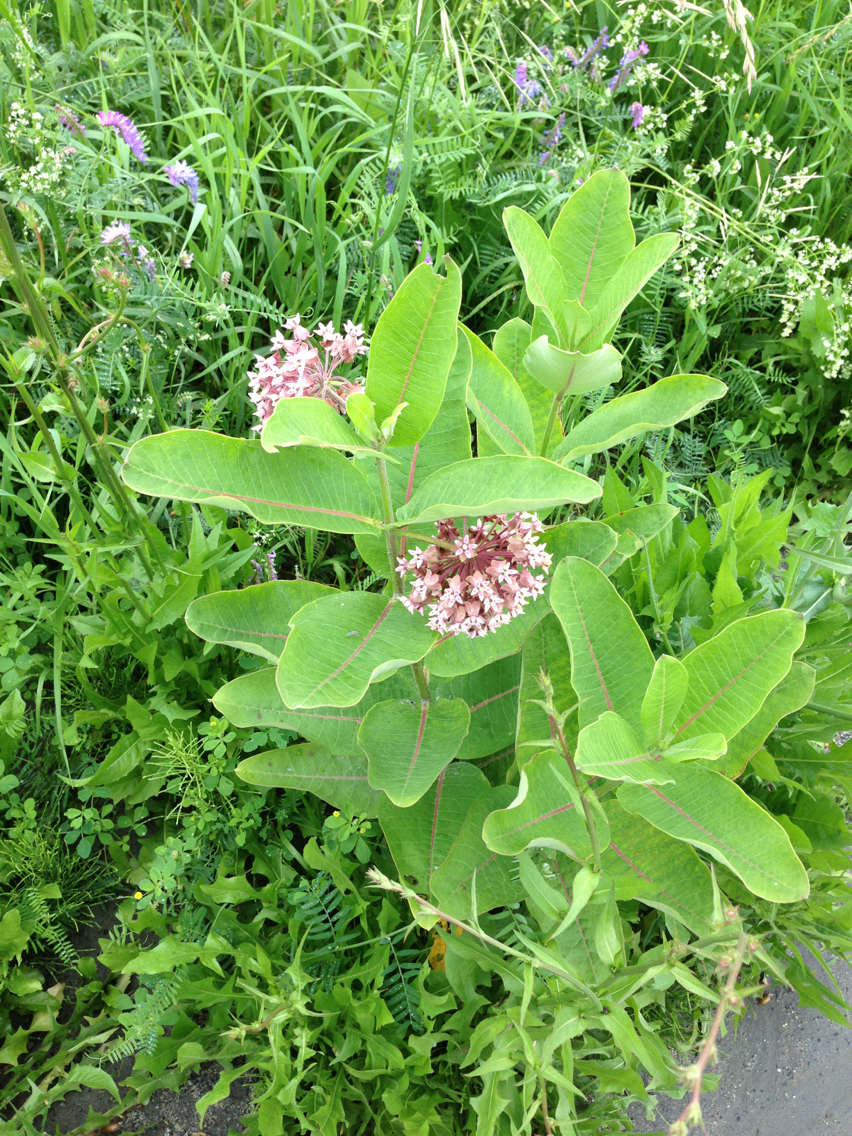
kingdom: Plantae
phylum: Tracheophyta
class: Magnoliopsida
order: Gentianales
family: Apocynaceae
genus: Asclepias
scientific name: Asclepias syriaca
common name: Common milkweed
